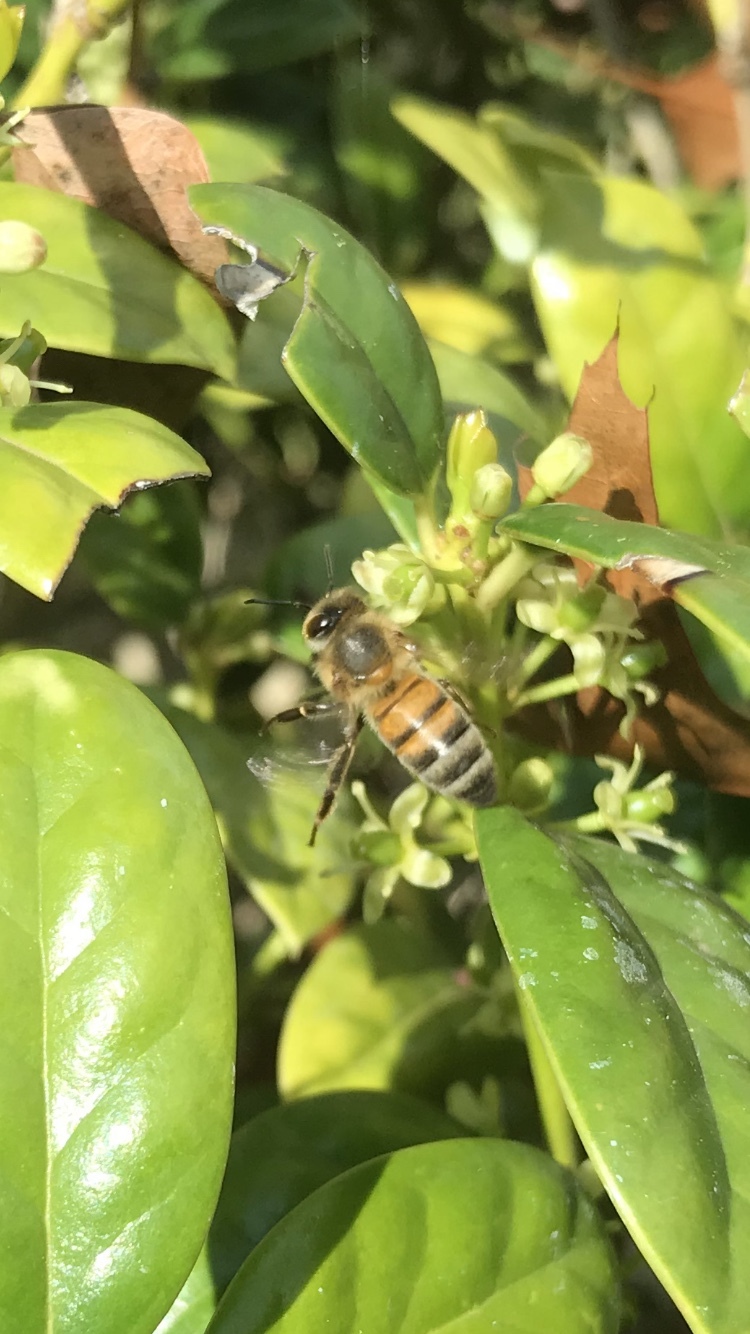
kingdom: Animalia
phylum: Arthropoda
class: Insecta
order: Hymenoptera
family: Apidae
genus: Apis
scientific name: Apis mellifera
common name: Honey bee
